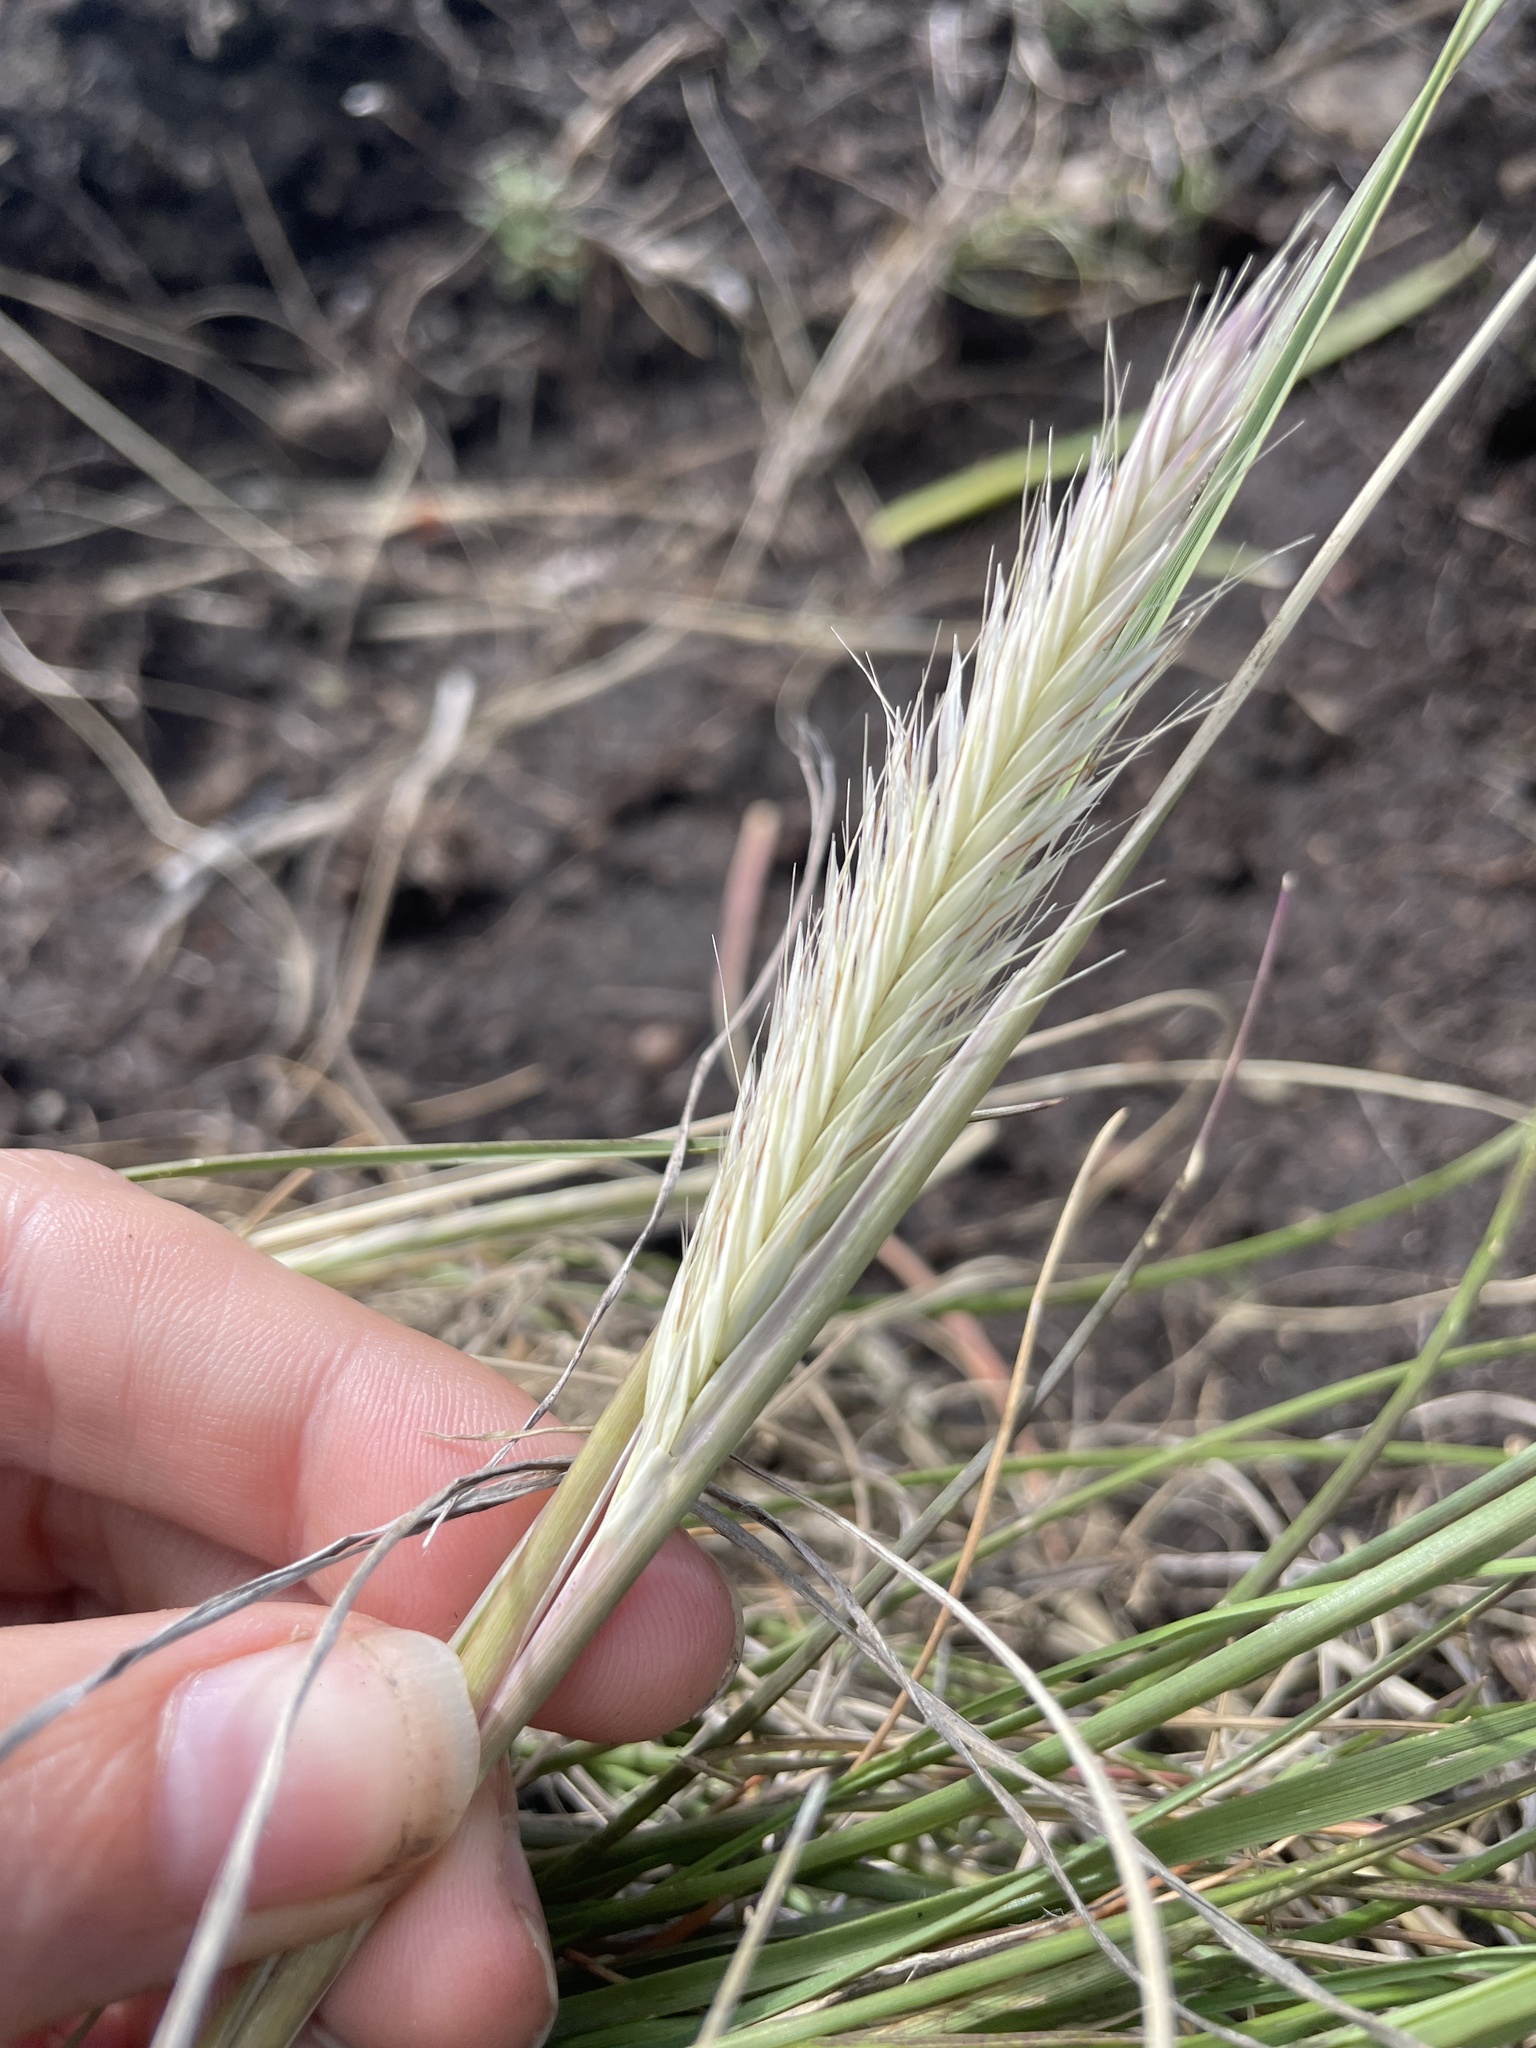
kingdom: Plantae
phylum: Tracheophyta
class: Liliopsida
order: Poales
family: Poaceae
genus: Tenaxia
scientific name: Tenaxia disticha
